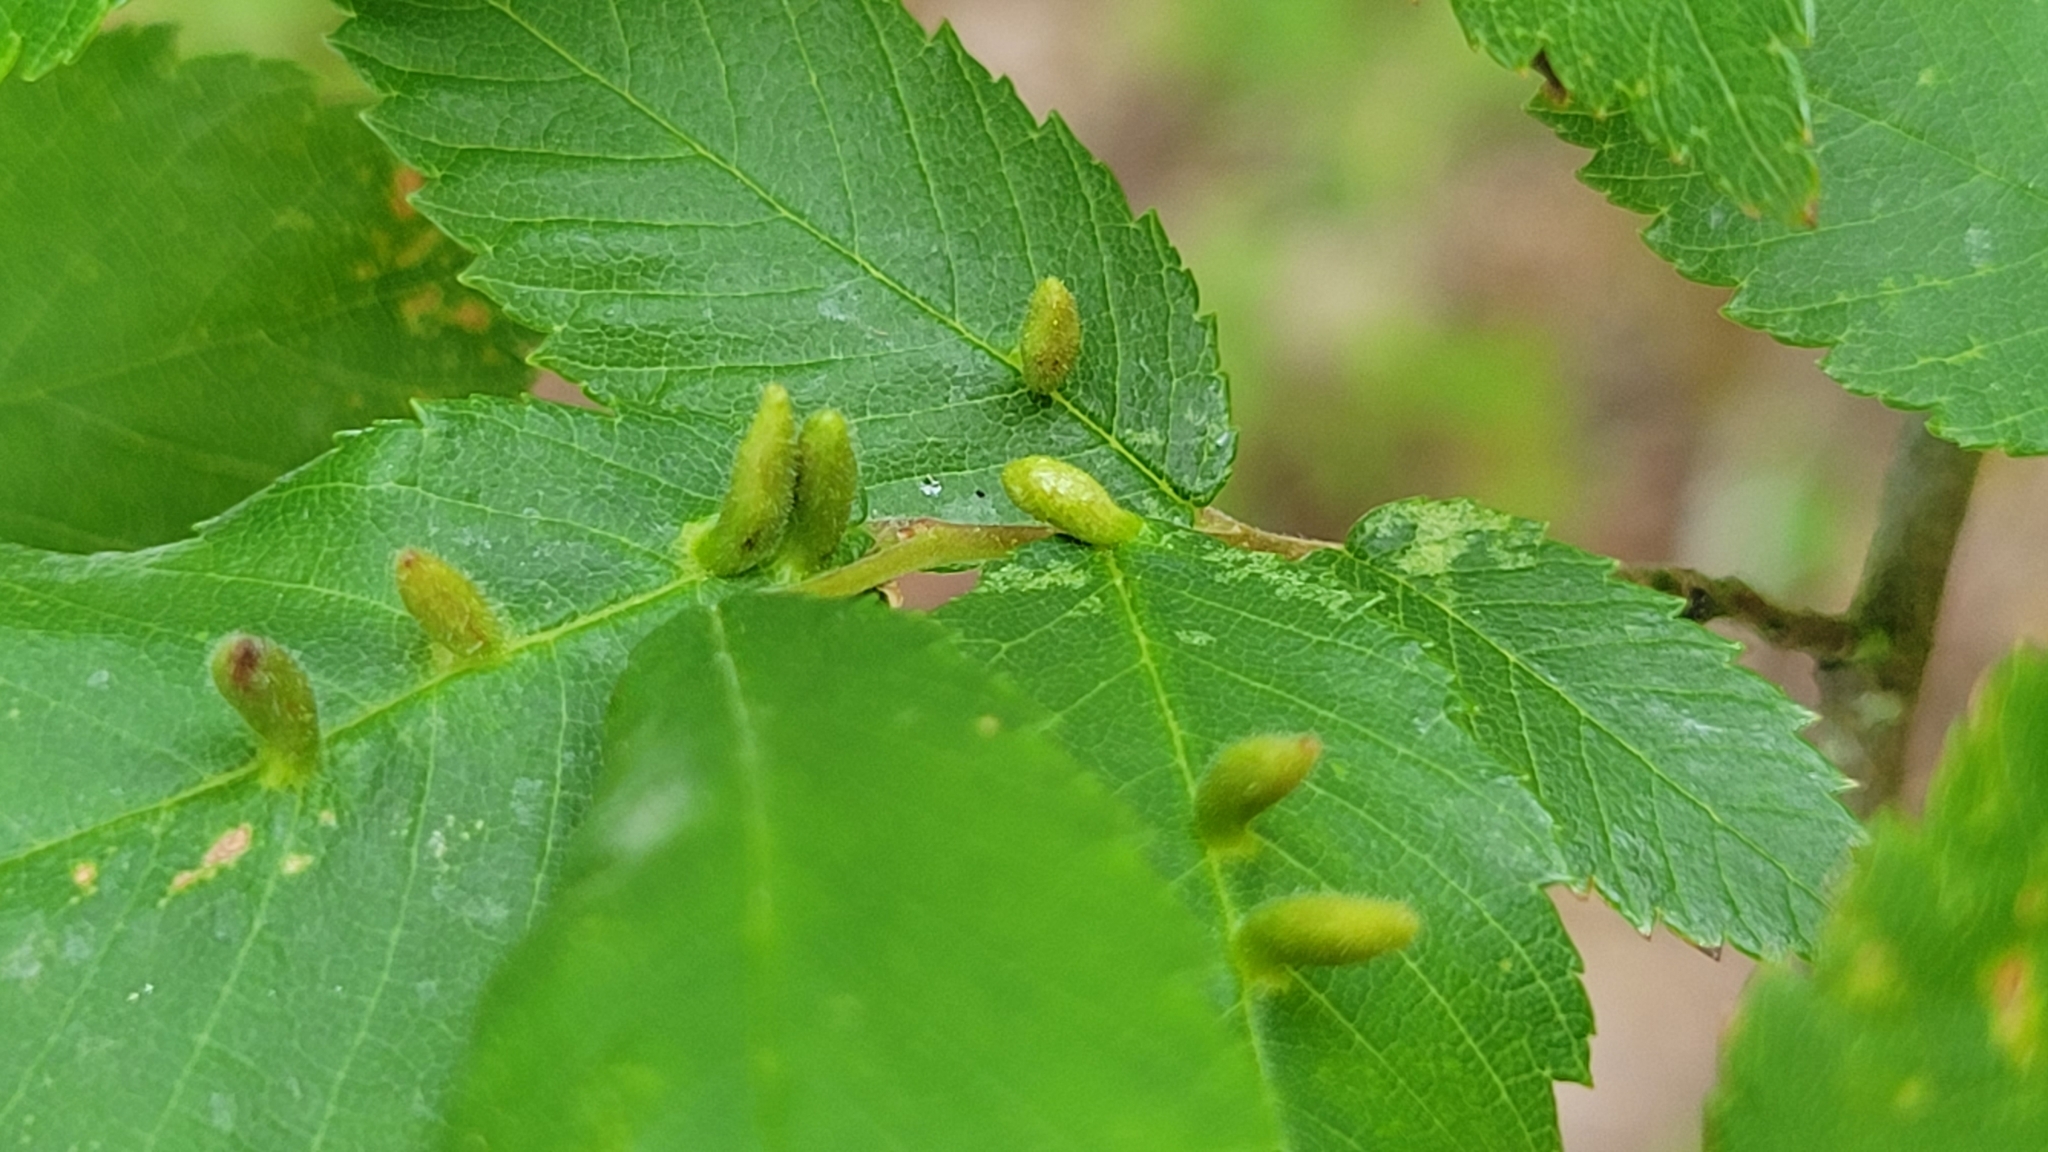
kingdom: Animalia
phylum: Arthropoda
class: Arachnida
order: Trombidiformes
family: Eriophyidae
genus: Aceria
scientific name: Aceria
